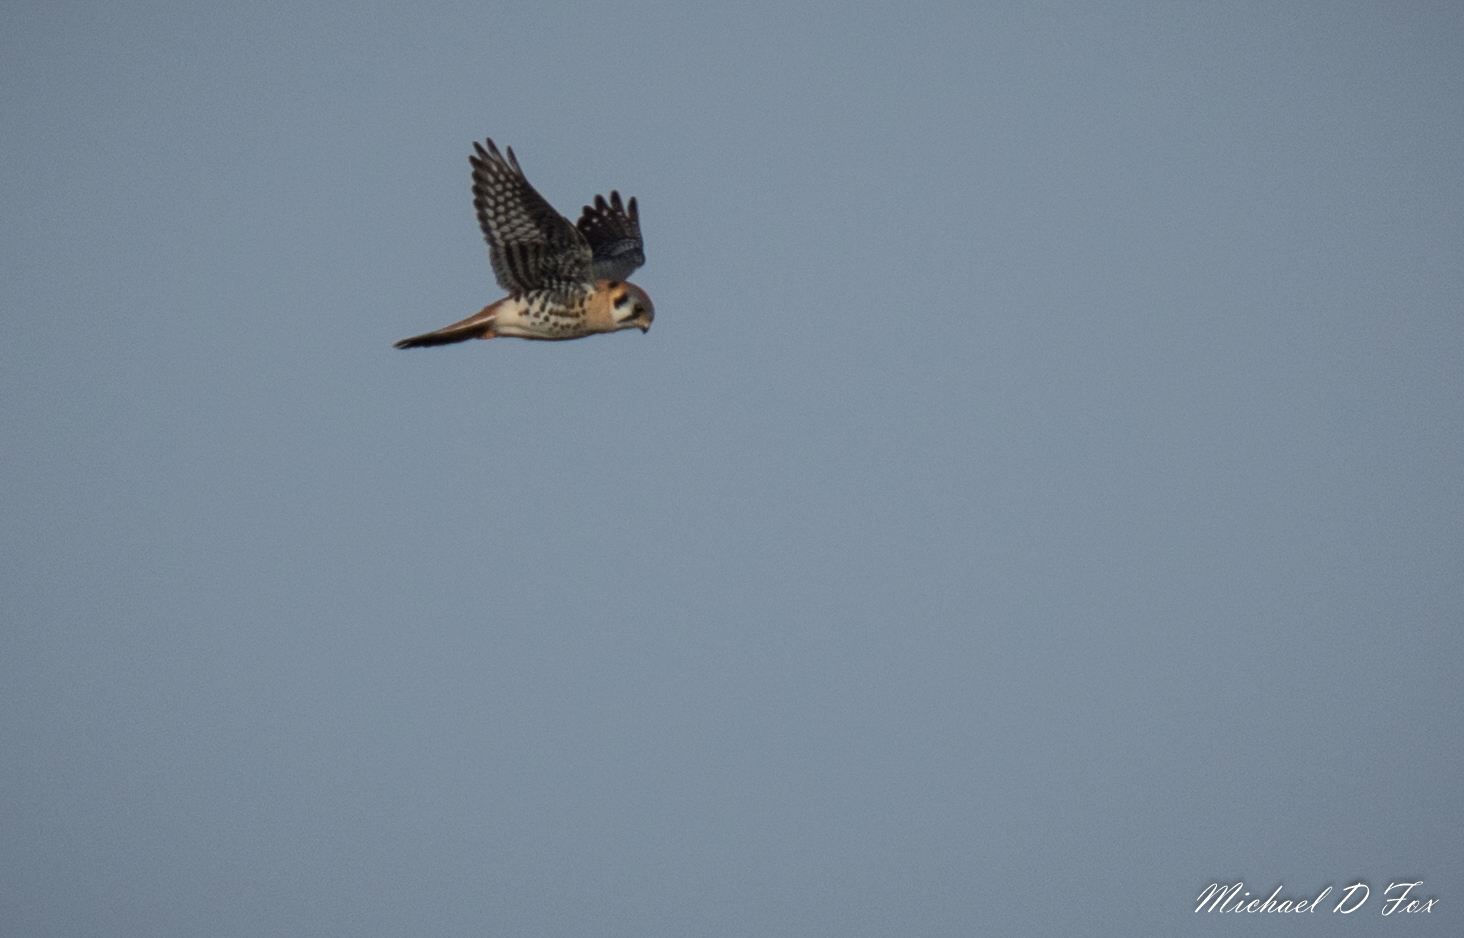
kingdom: Animalia
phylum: Chordata
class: Aves
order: Falconiformes
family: Falconidae
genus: Falco
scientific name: Falco sparverius
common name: American kestrel
